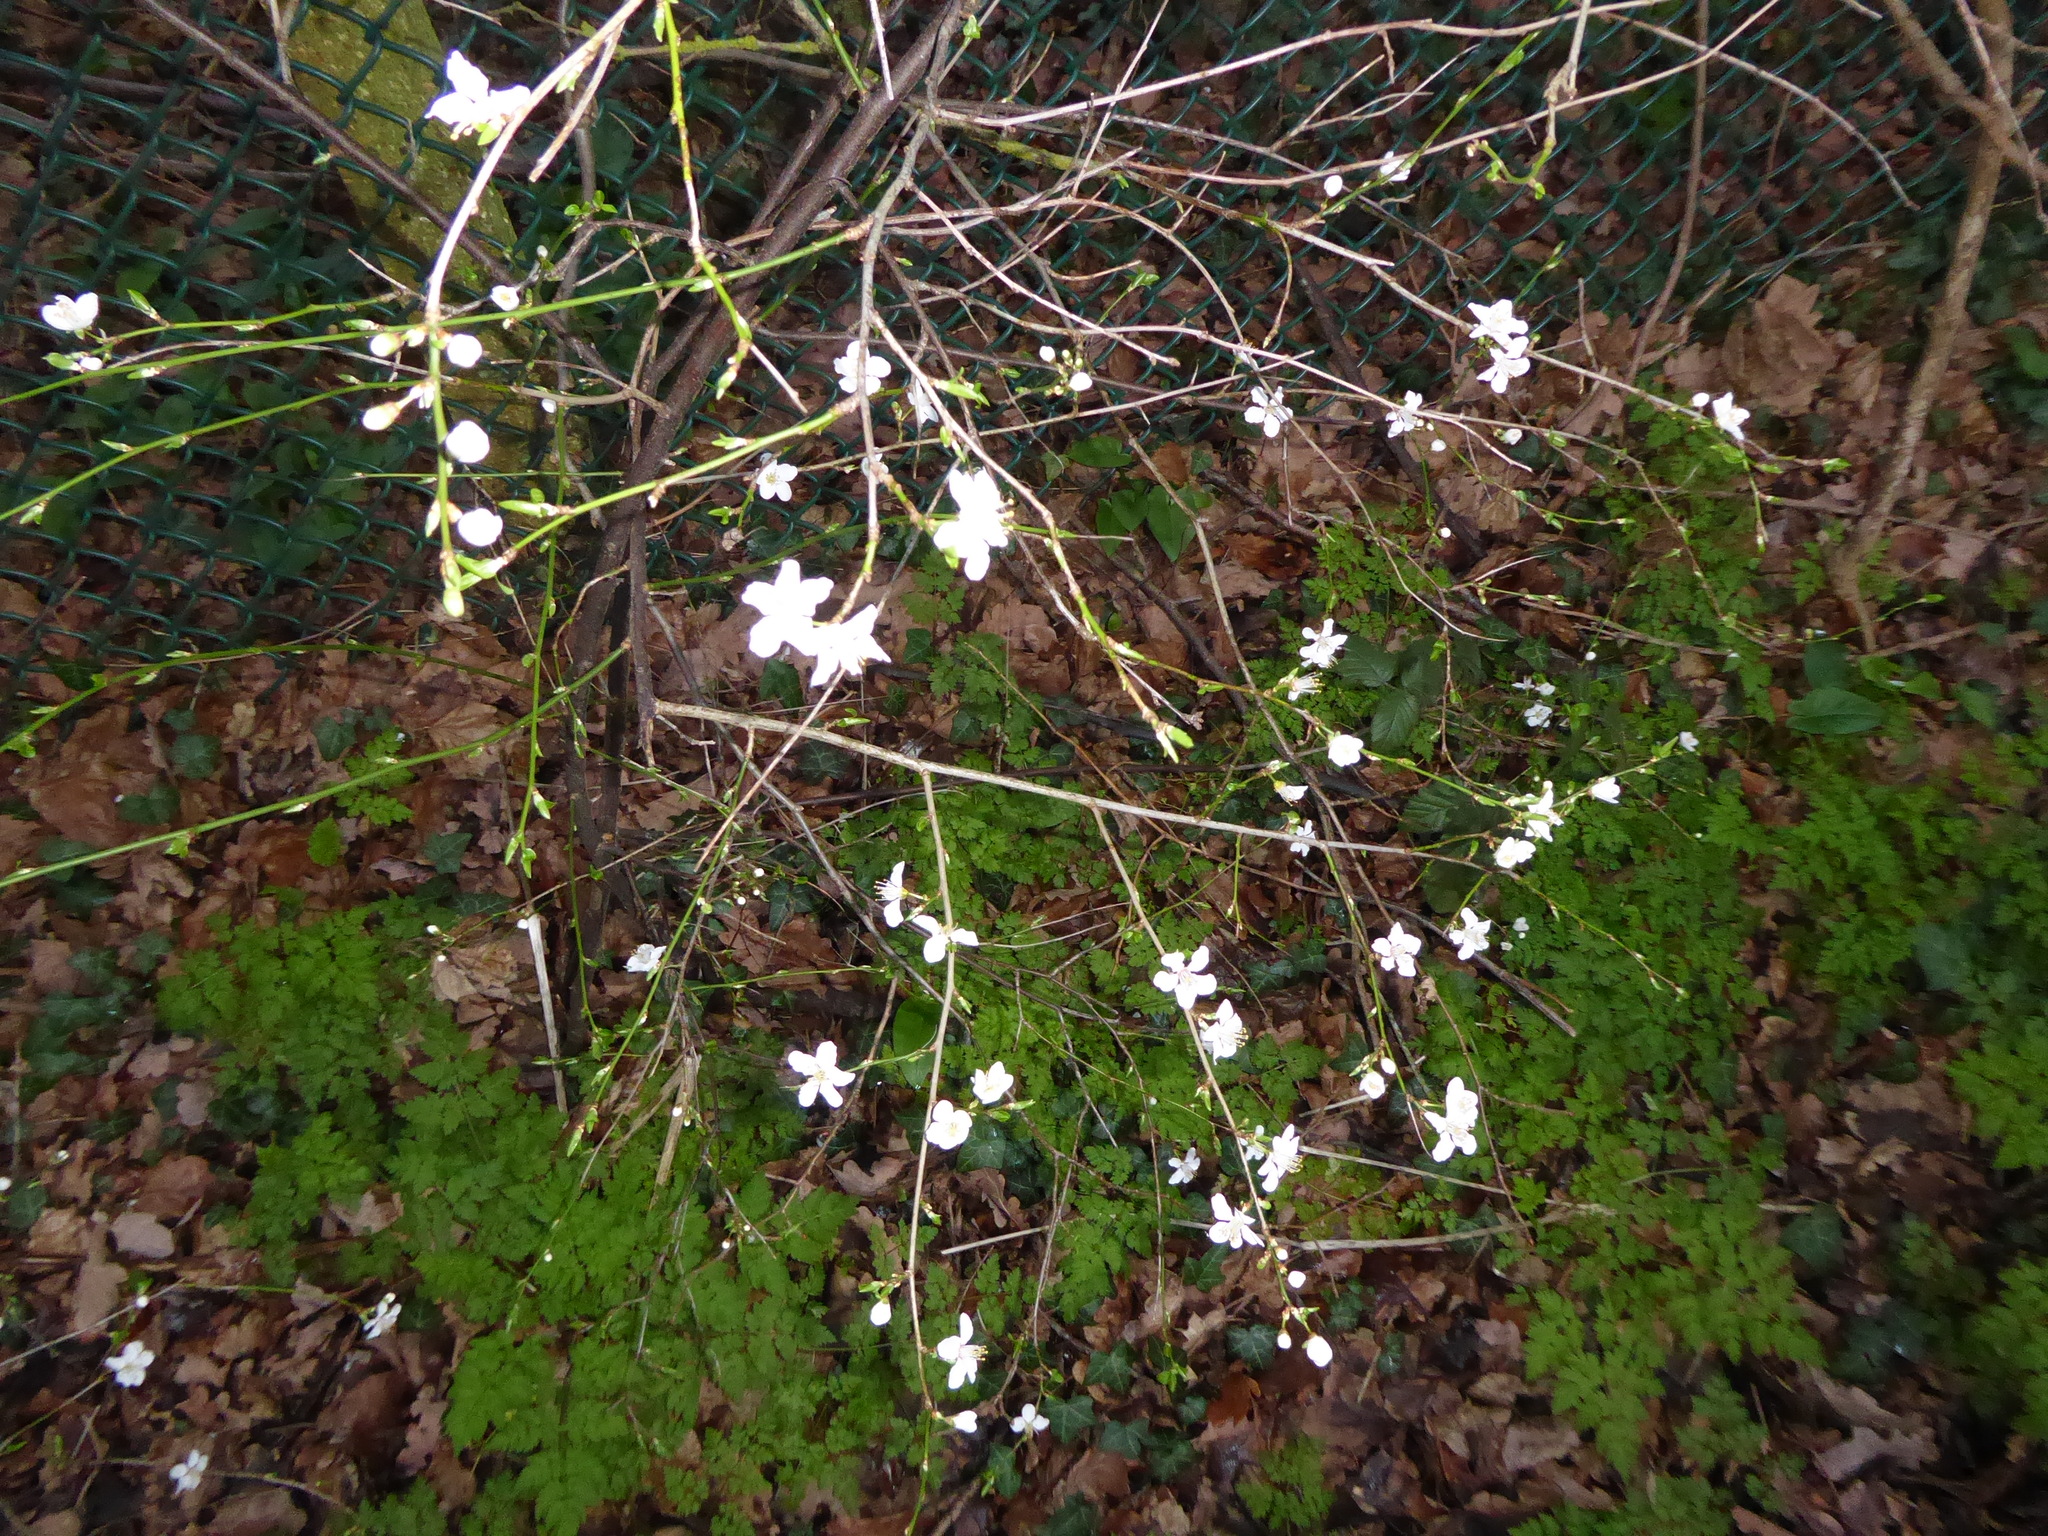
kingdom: Plantae
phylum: Tracheophyta
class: Magnoliopsida
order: Rosales
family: Rosaceae
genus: Prunus
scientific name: Prunus cerasifera
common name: Cherry plum
